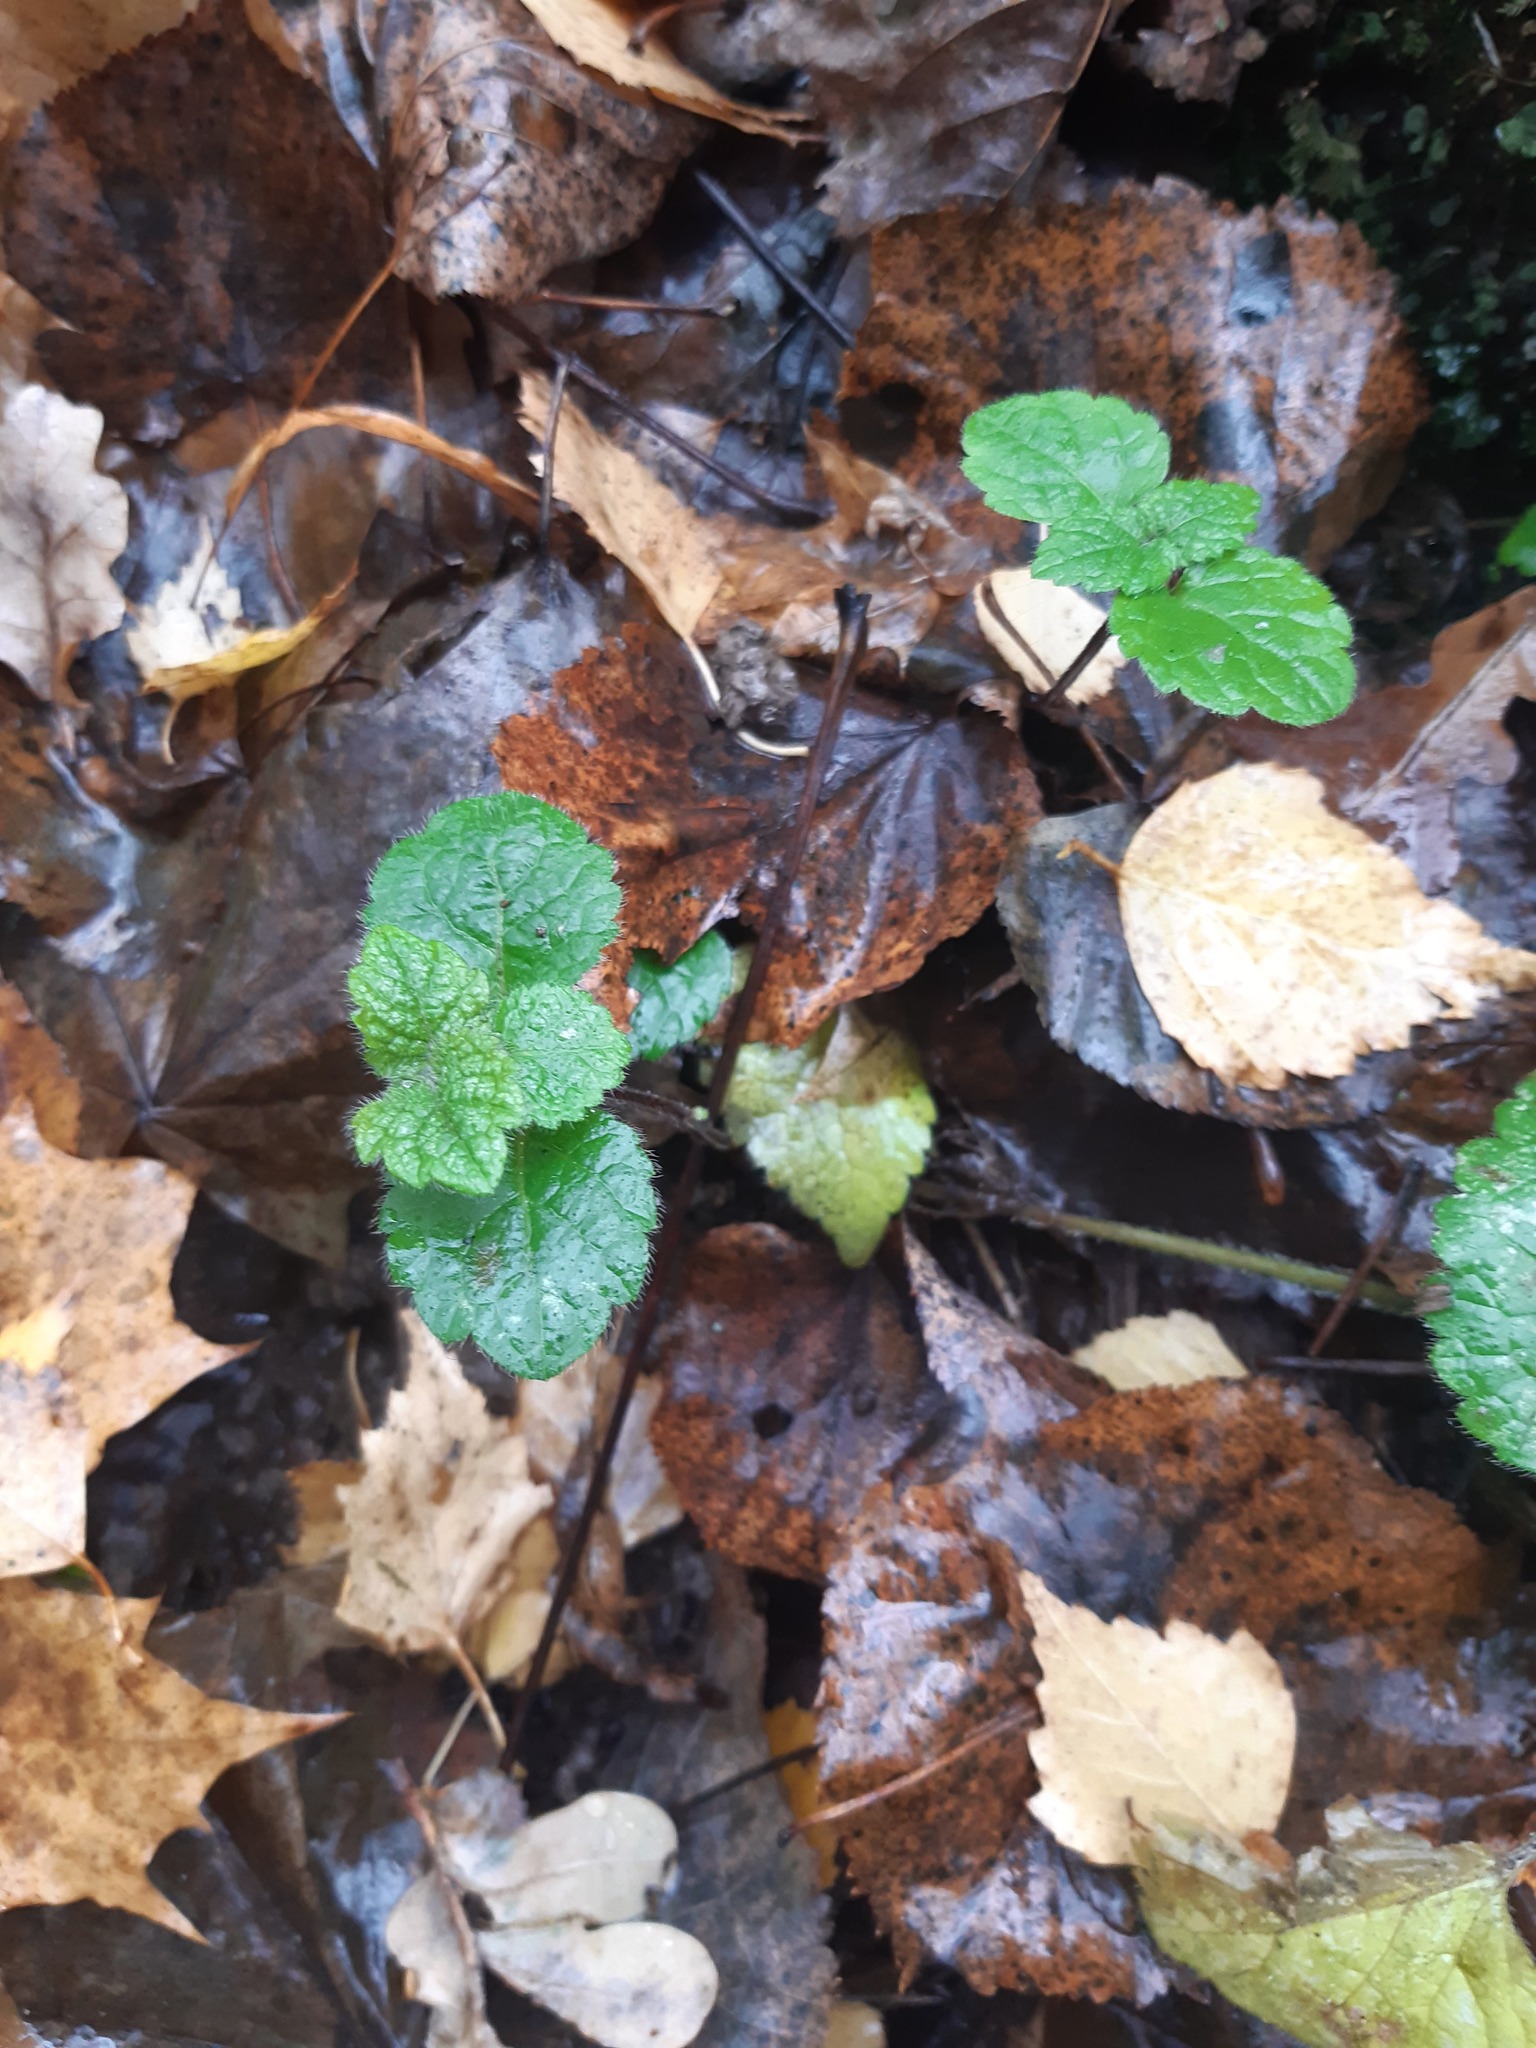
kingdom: Plantae
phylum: Tracheophyta
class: Magnoliopsida
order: Lamiales
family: Lamiaceae
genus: Lamium
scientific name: Lamium galeobdolon
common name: Yellow archangel
